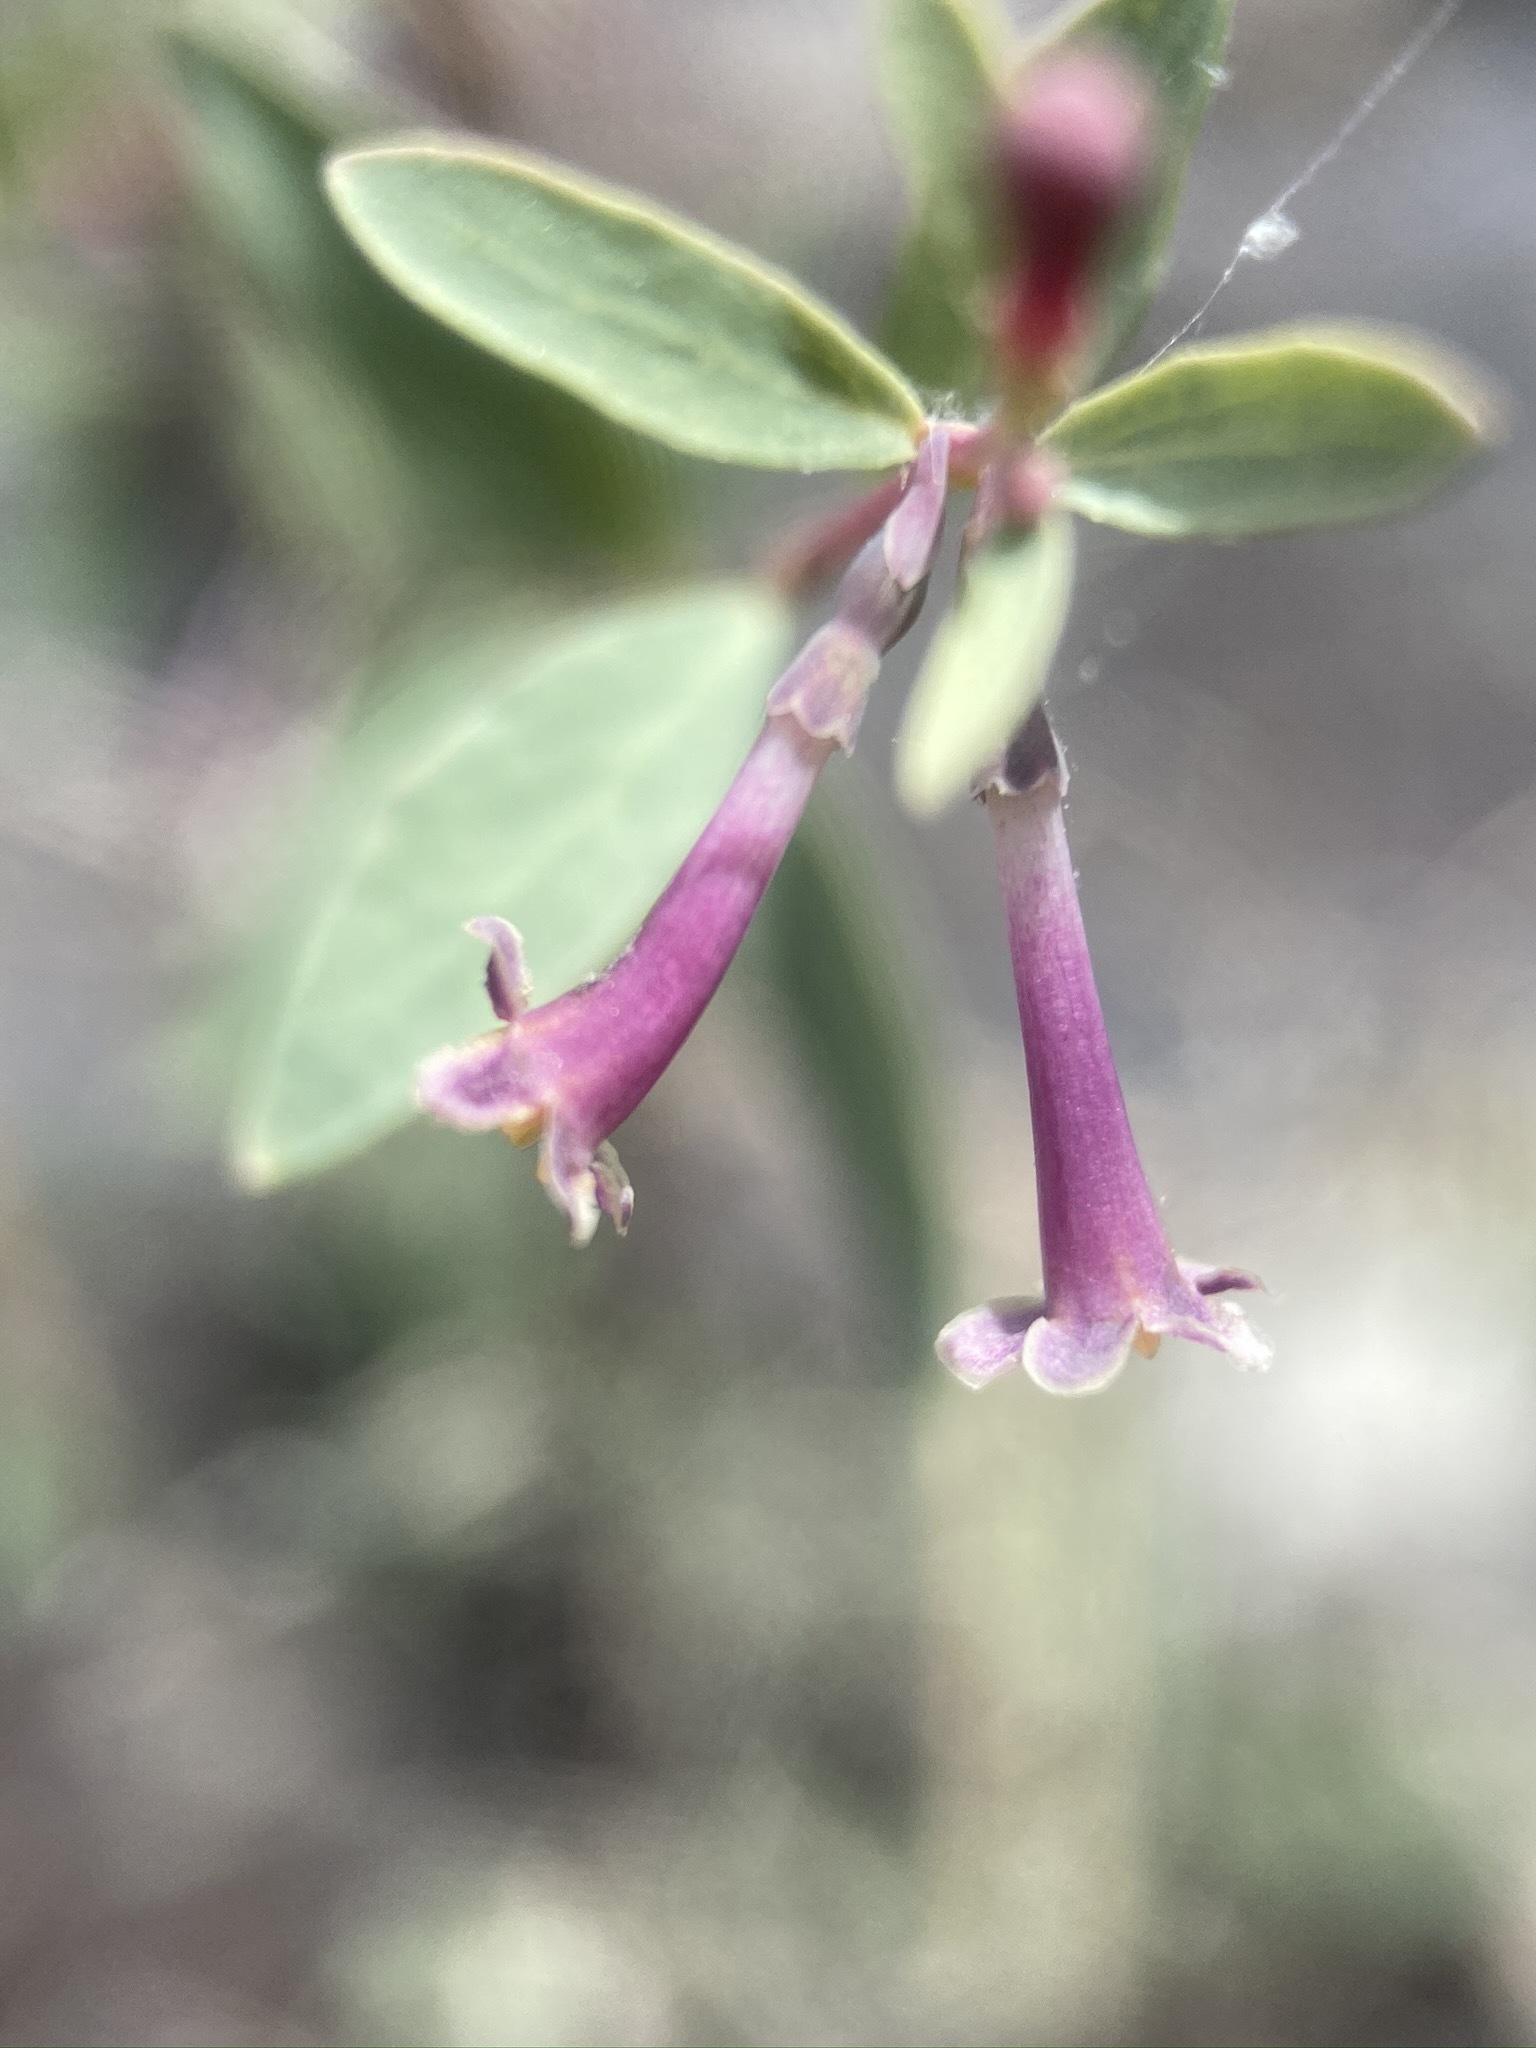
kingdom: Plantae
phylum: Tracheophyta
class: Magnoliopsida
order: Dipsacales
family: Caprifoliaceae
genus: Symphoricarpos
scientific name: Symphoricarpos longiflorus
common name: Fragrant snowberry
